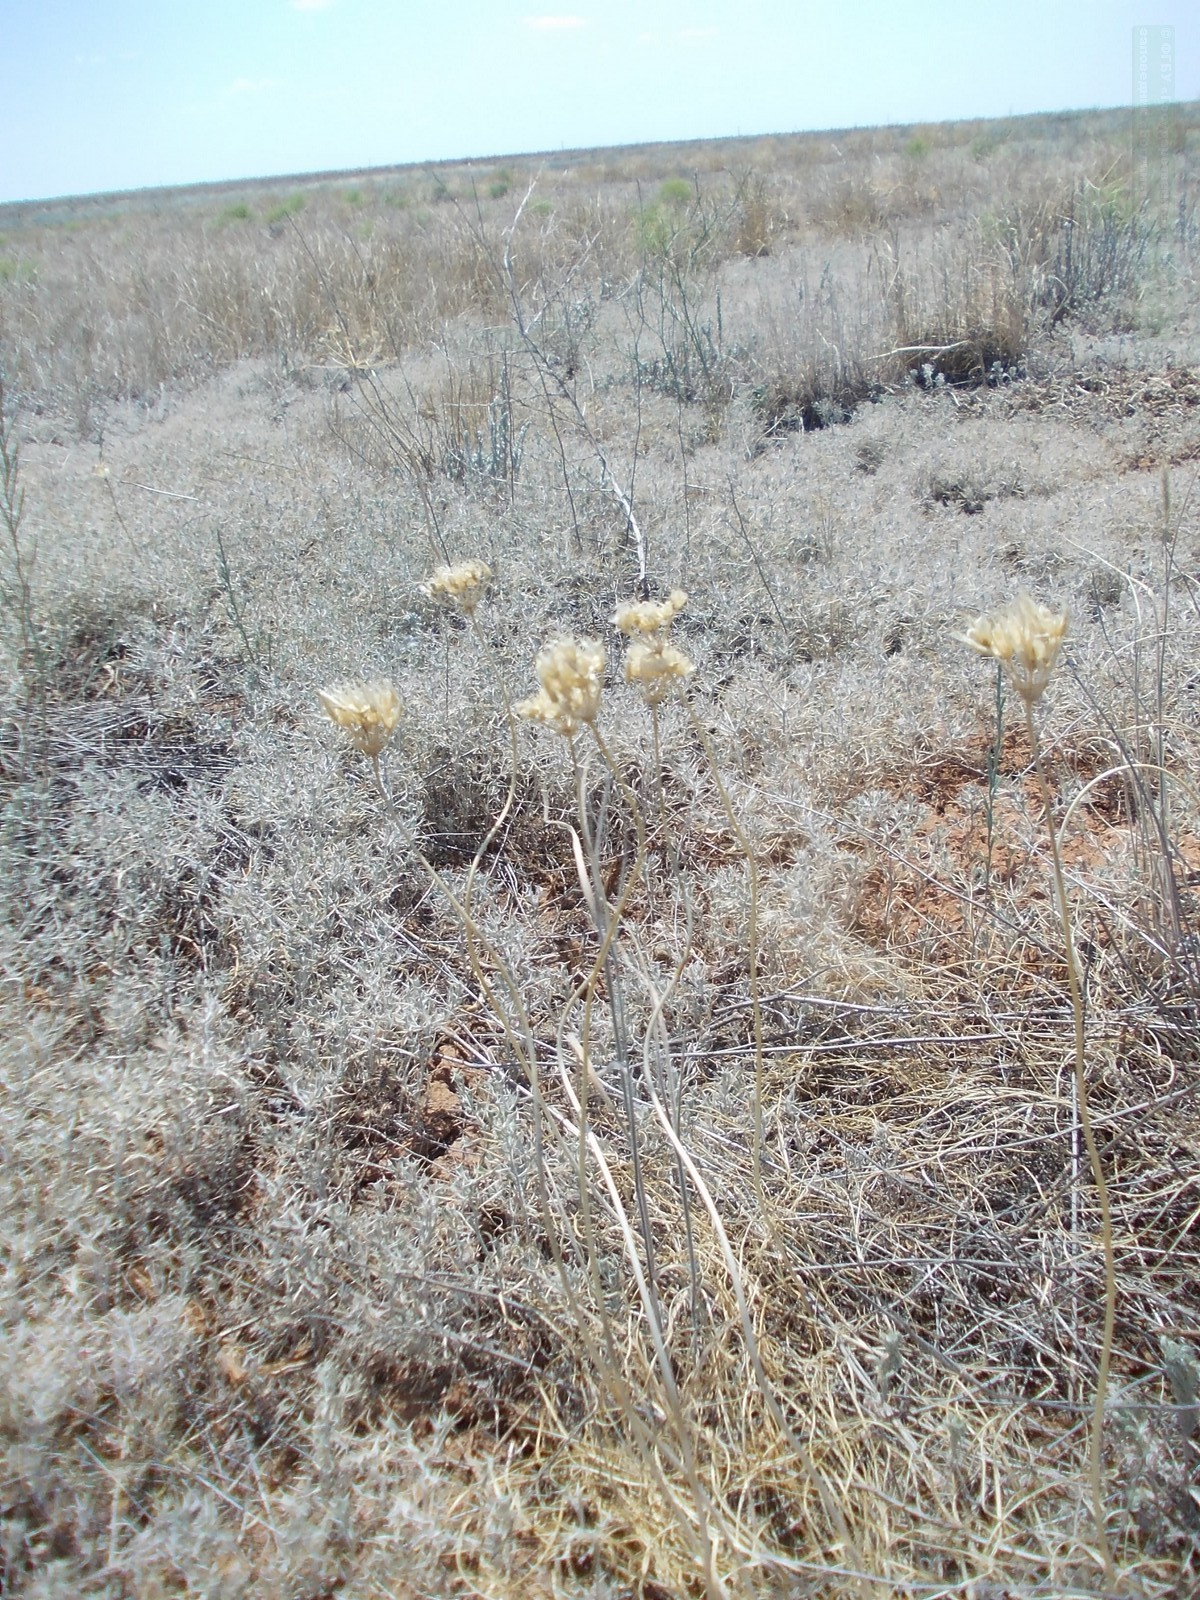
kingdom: Plantae
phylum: Tracheophyta
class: Liliopsida
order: Asparagales
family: Amaryllidaceae
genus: Allium
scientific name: Allium inderiense
